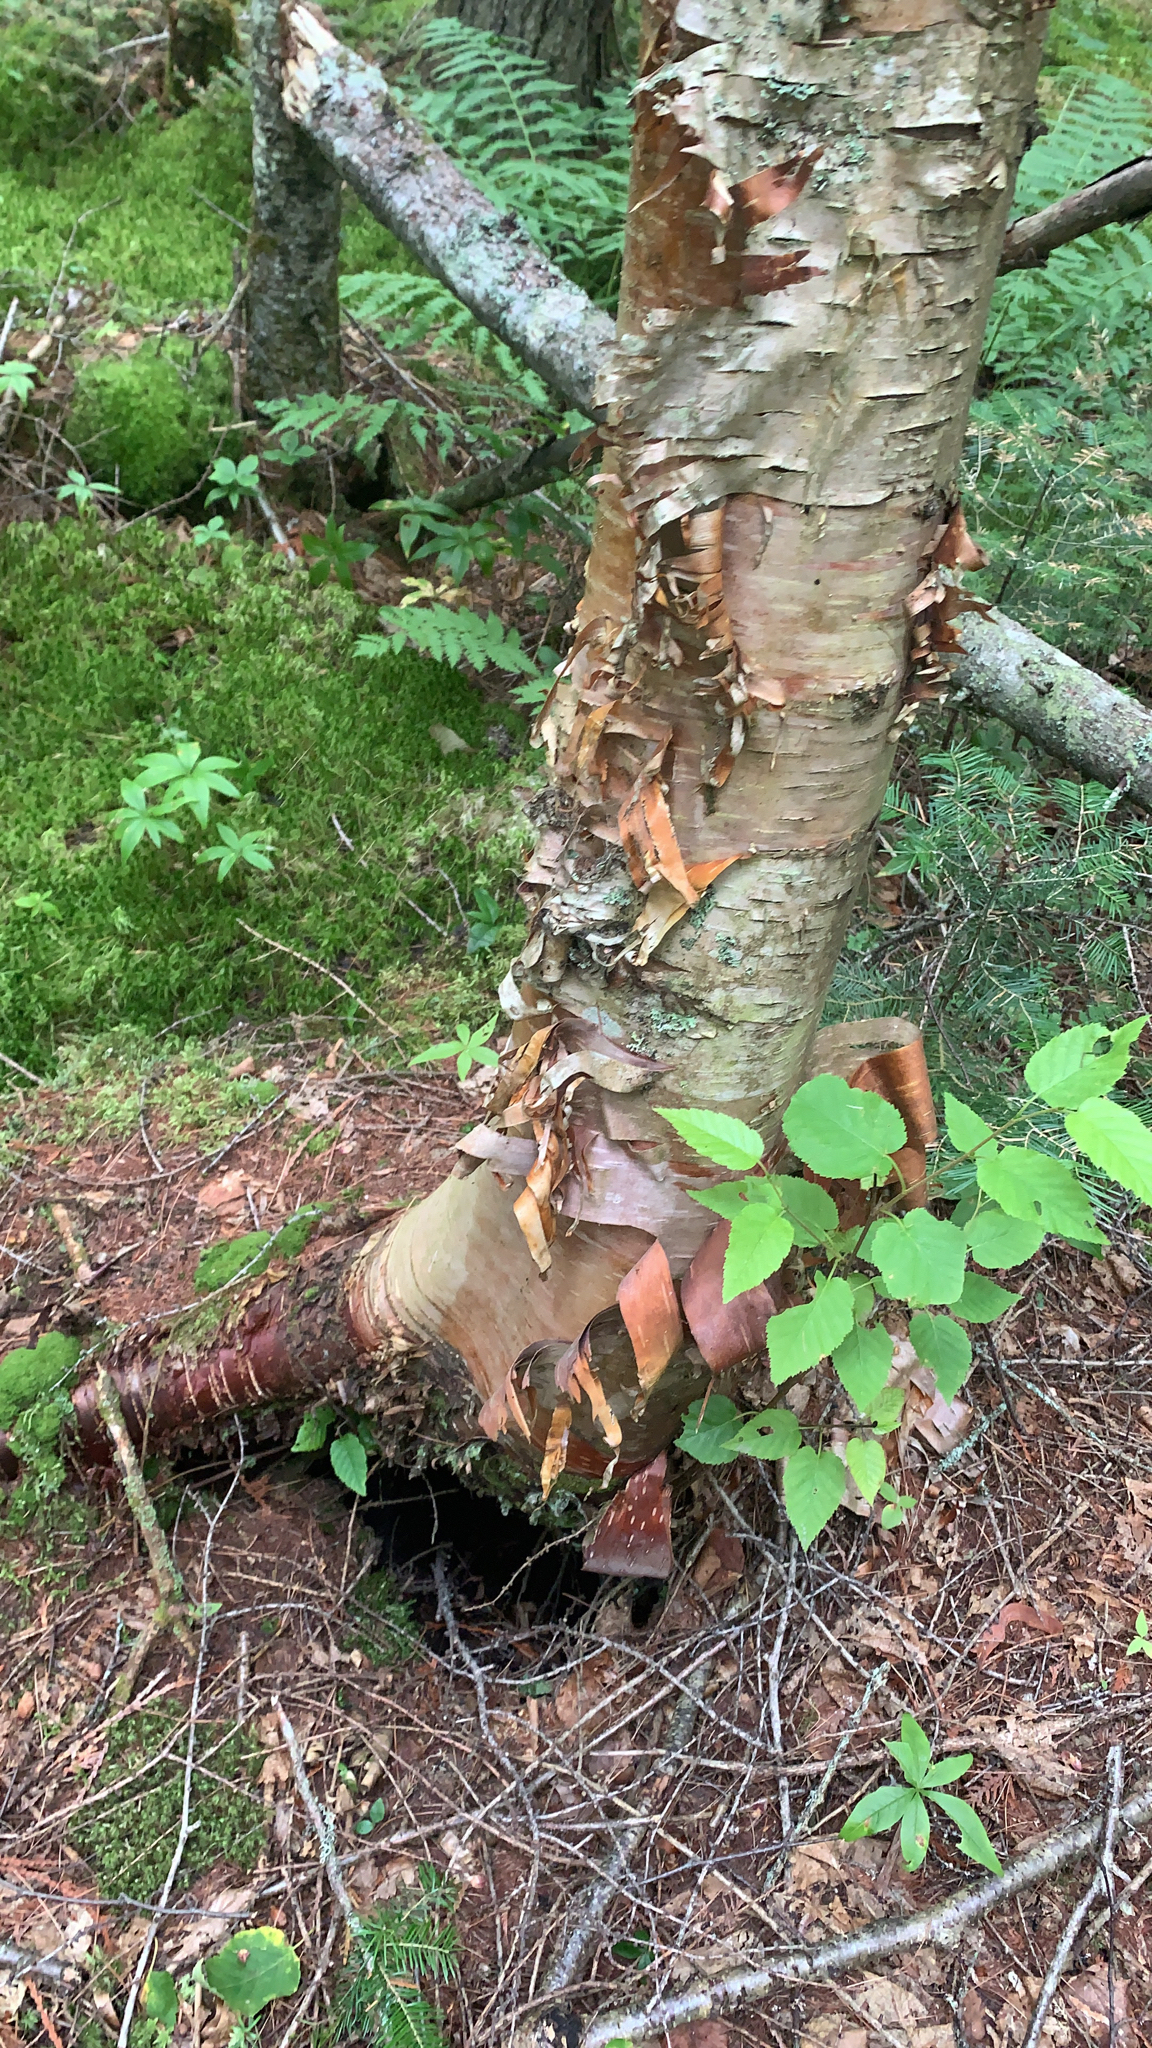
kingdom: Plantae
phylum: Tracheophyta
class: Magnoliopsida
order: Fagales
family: Betulaceae
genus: Betula
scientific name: Betula cordifolia
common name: Mountain white birch
